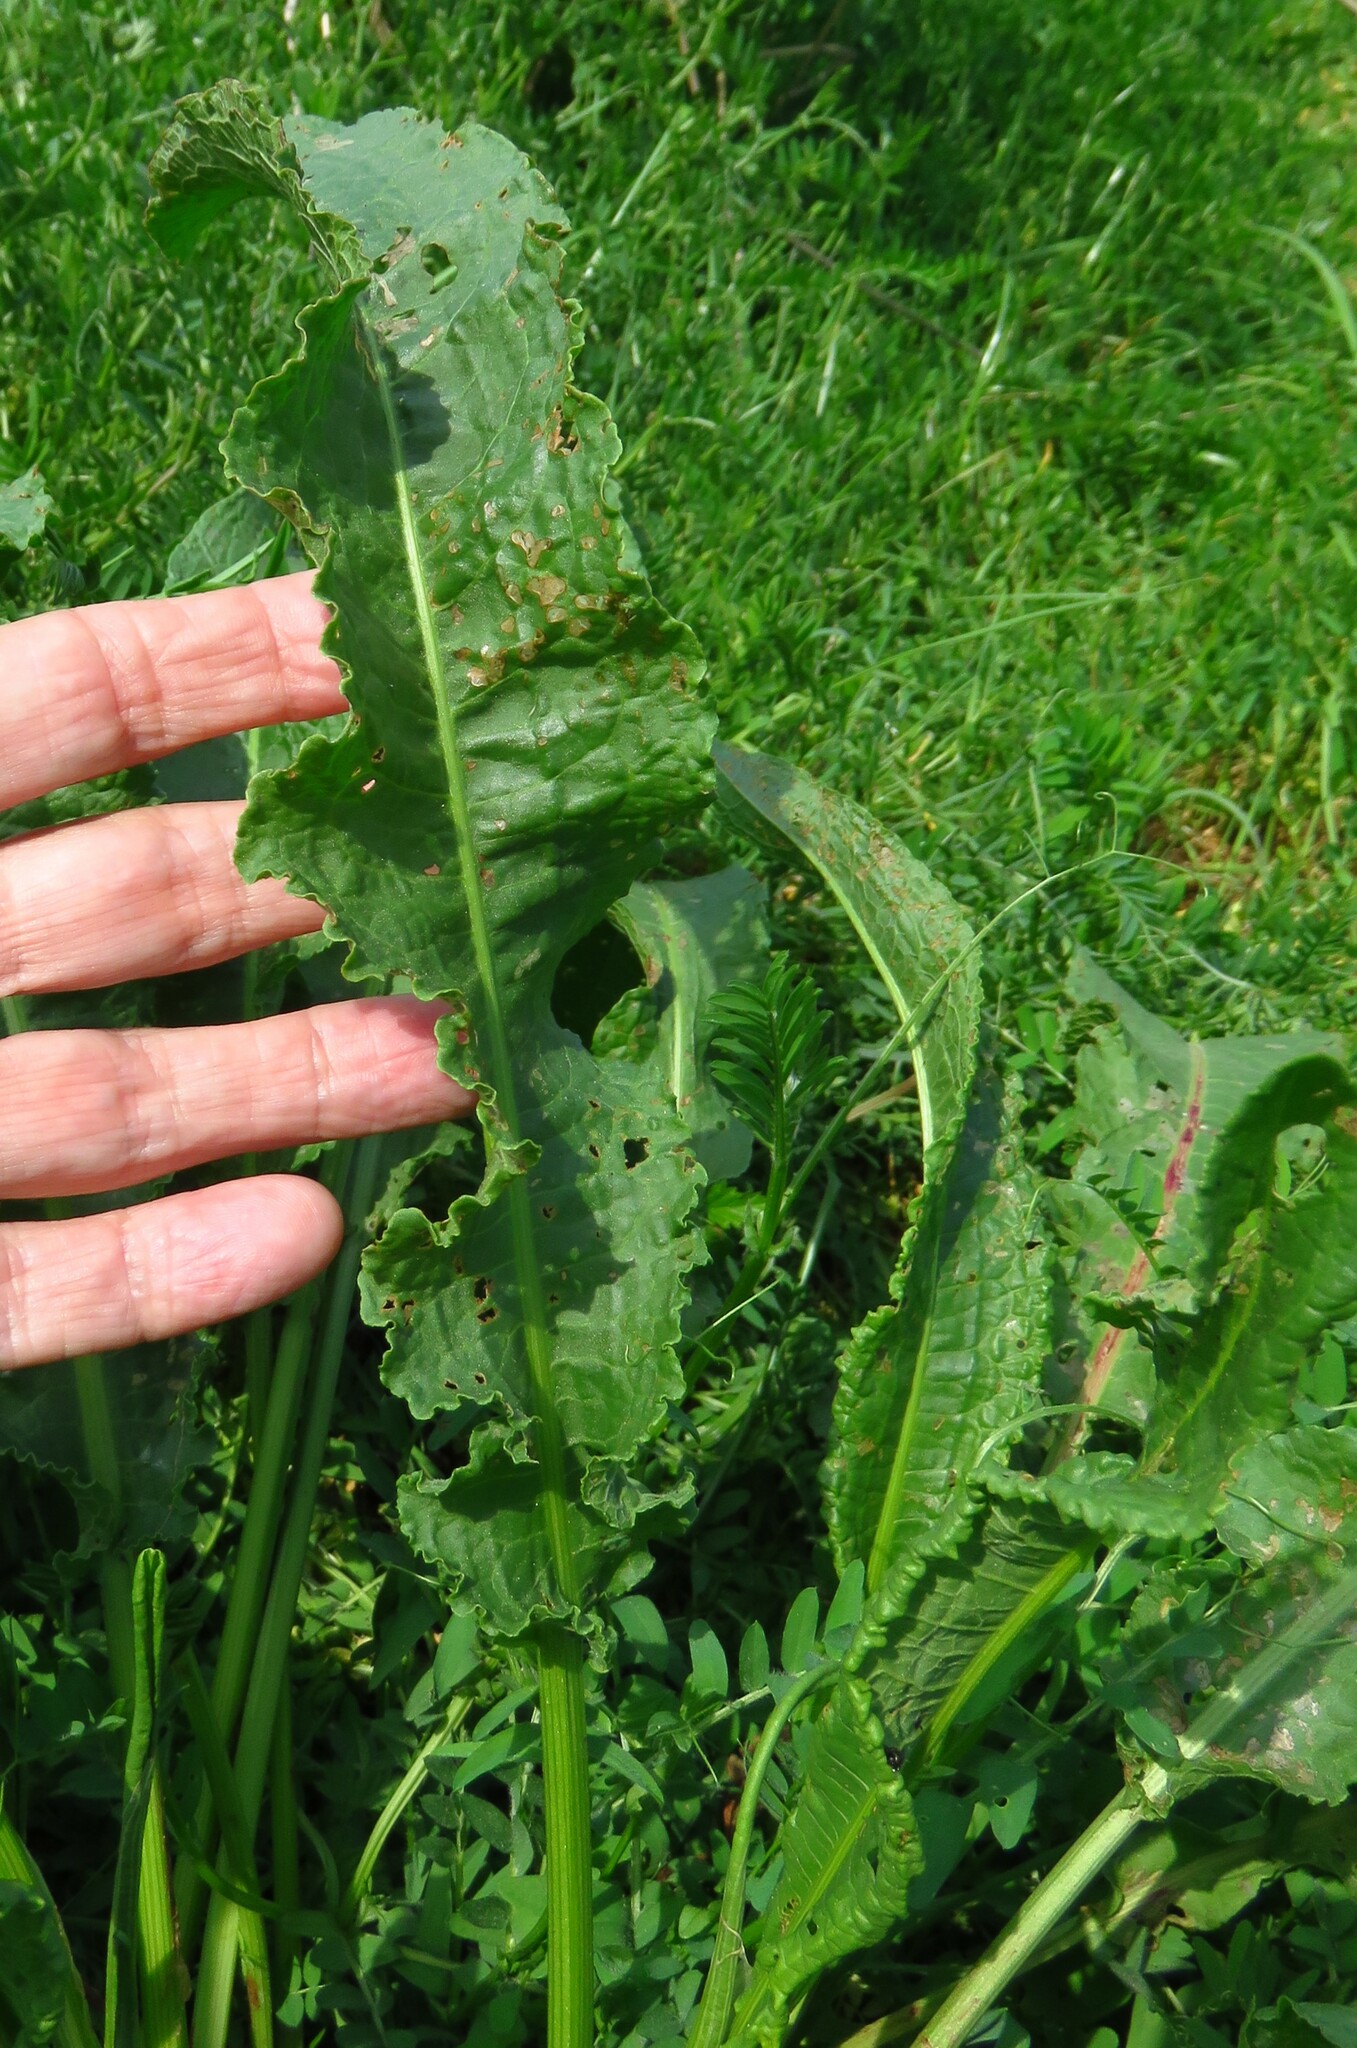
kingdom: Plantae
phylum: Tracheophyta
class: Magnoliopsida
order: Caryophyllales
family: Polygonaceae
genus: Rumex
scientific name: Rumex crispus
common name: Curled dock
